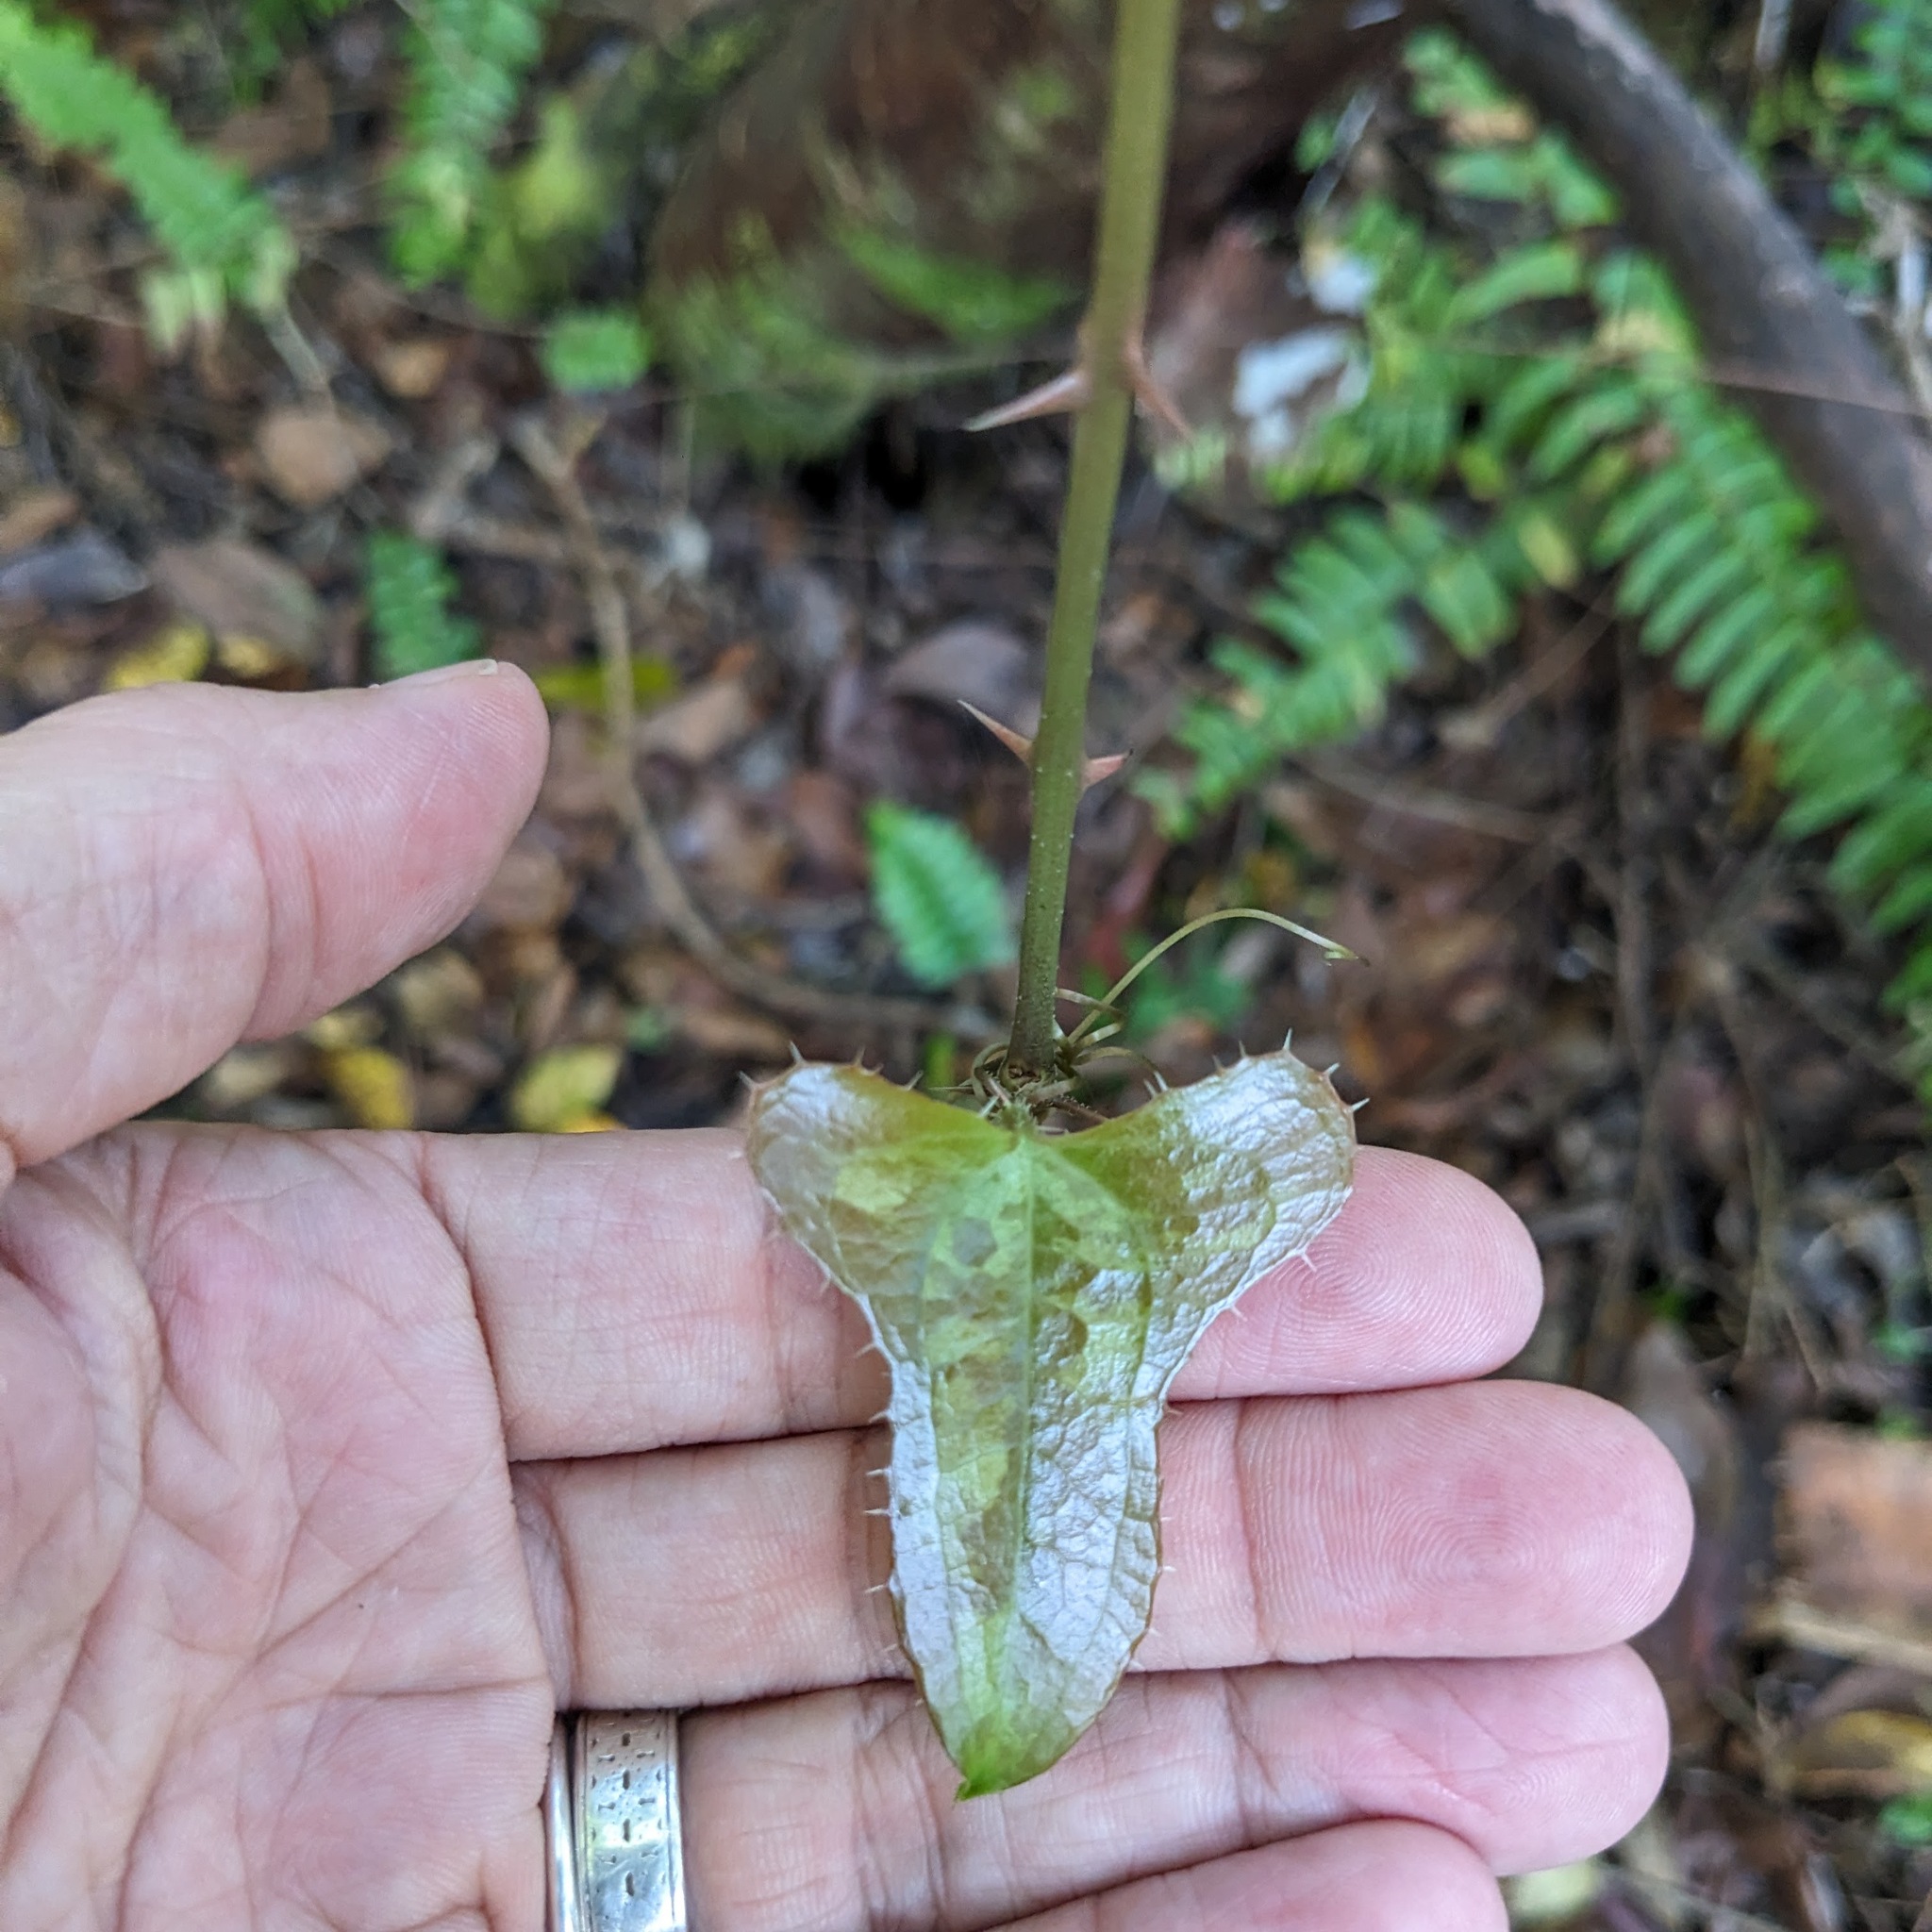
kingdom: Plantae
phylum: Tracheophyta
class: Liliopsida
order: Liliales
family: Smilacaceae
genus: Smilax
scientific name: Smilax bona-nox
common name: Catbrier
